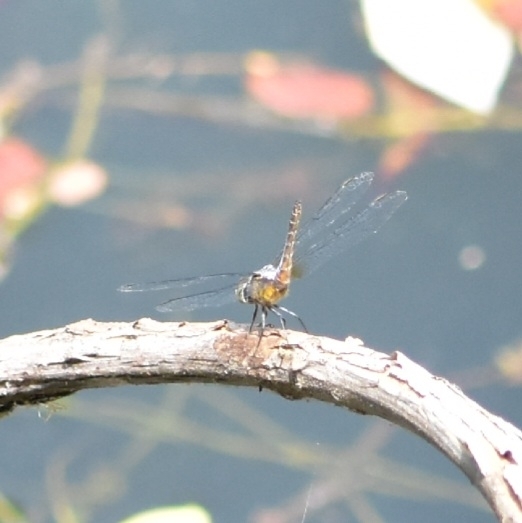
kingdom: Animalia
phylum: Arthropoda
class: Insecta
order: Odonata
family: Libellulidae
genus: Brachydiplax
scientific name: Brachydiplax chalybea
